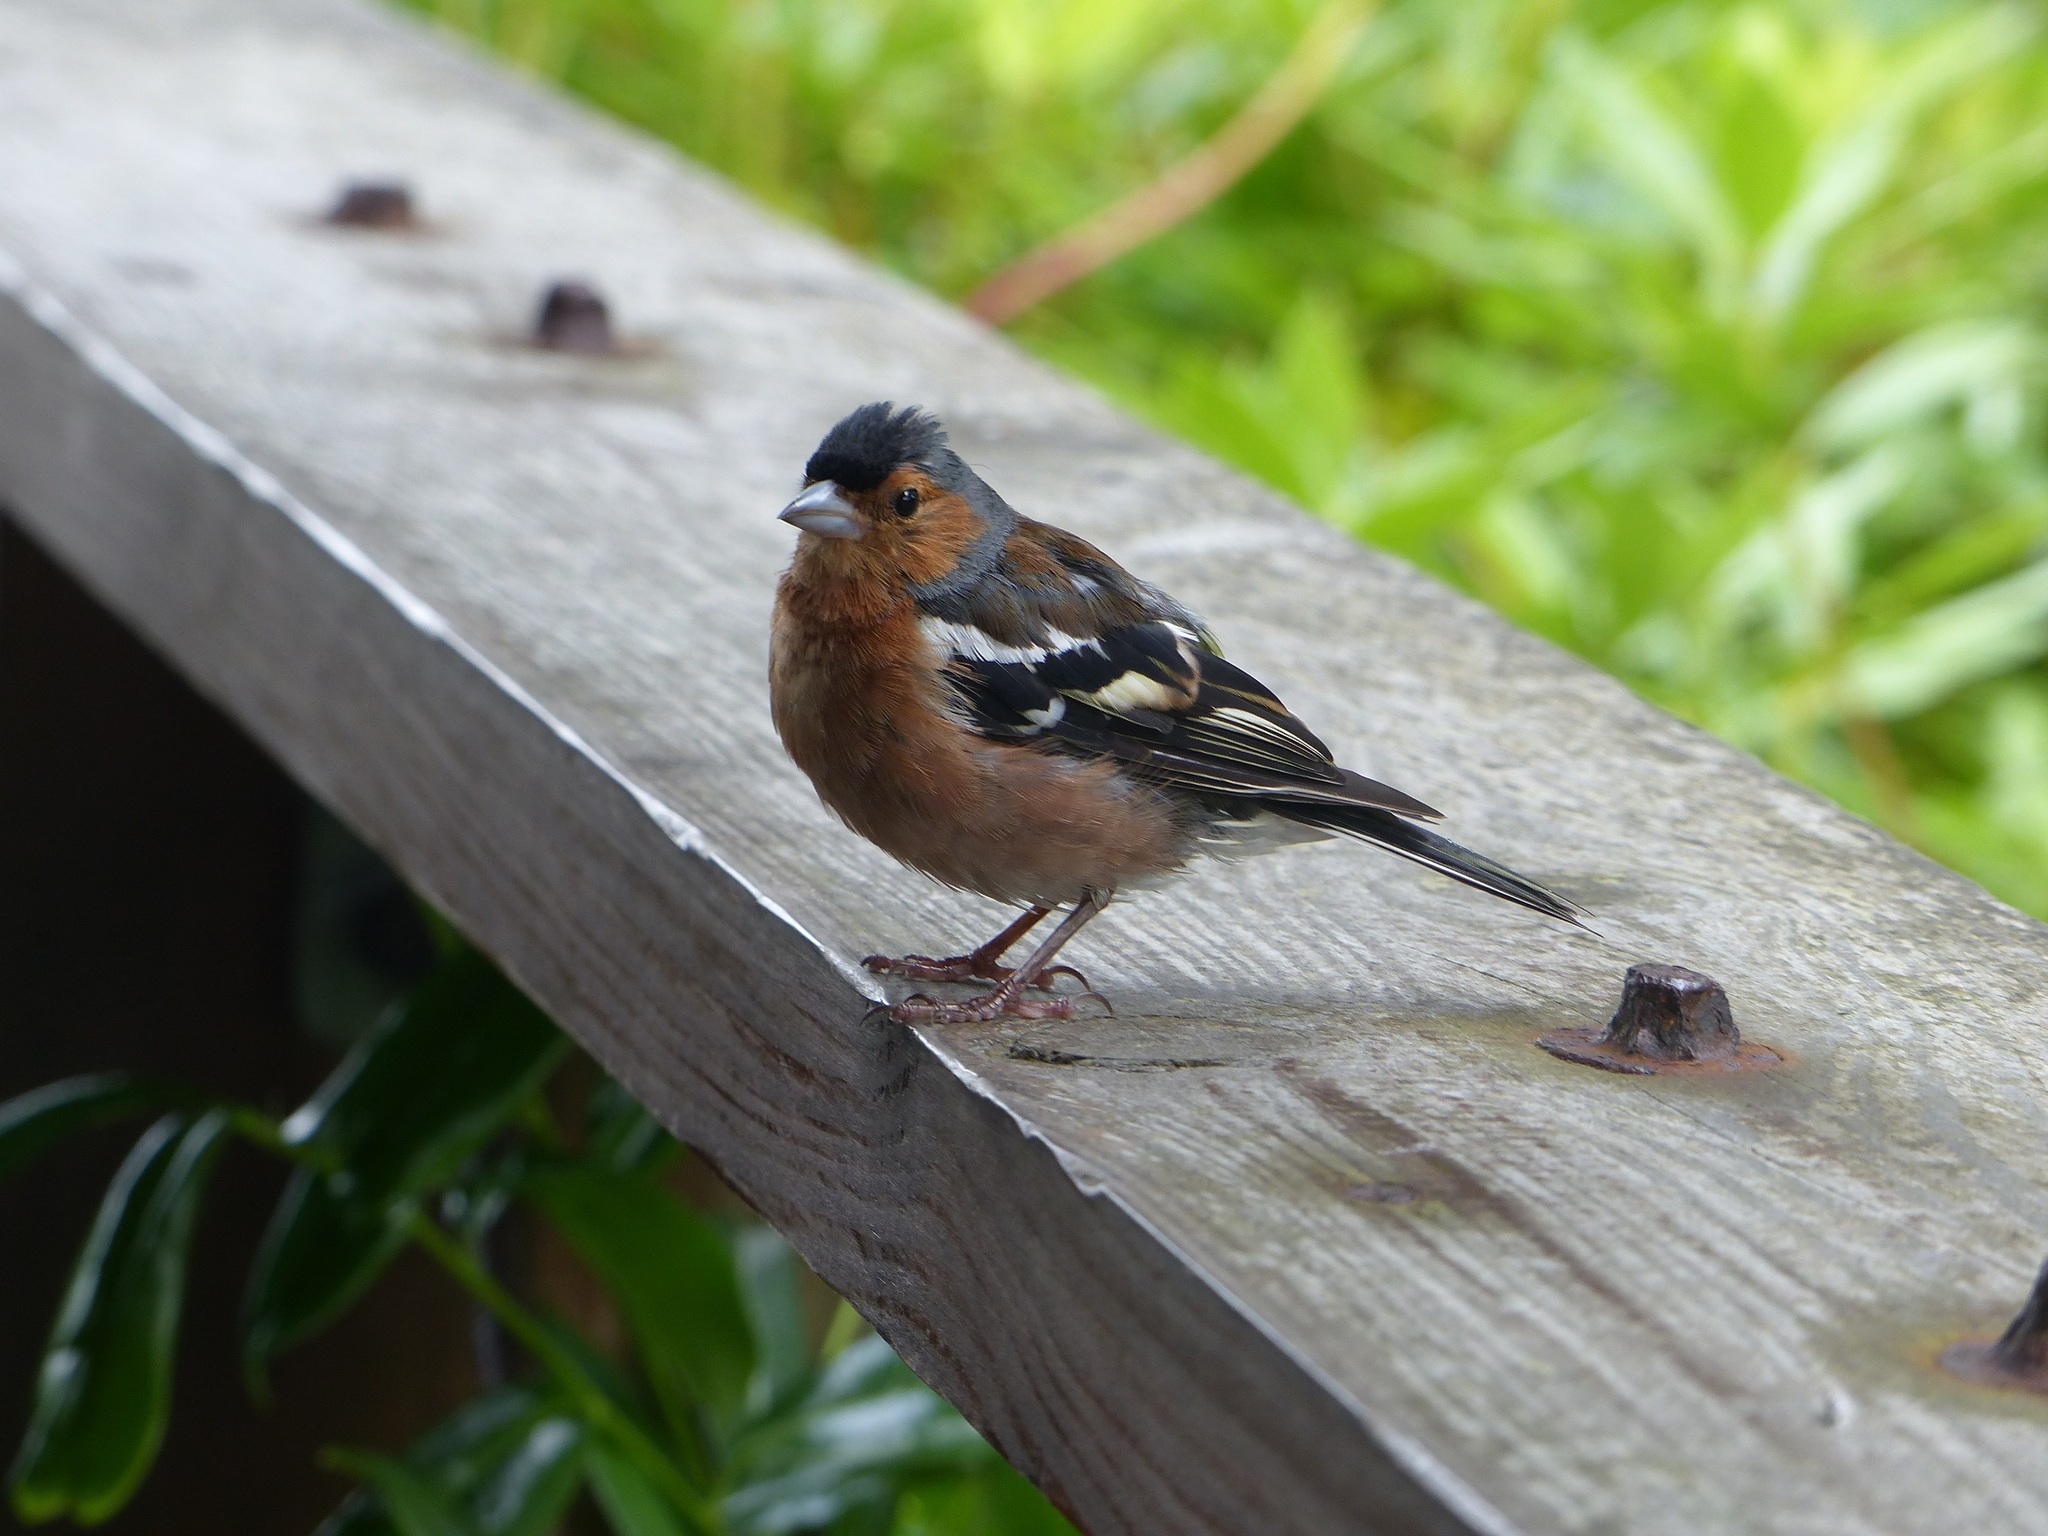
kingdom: Animalia
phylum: Chordata
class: Aves
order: Passeriformes
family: Fringillidae
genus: Fringilla
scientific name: Fringilla coelebs
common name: Common chaffinch
